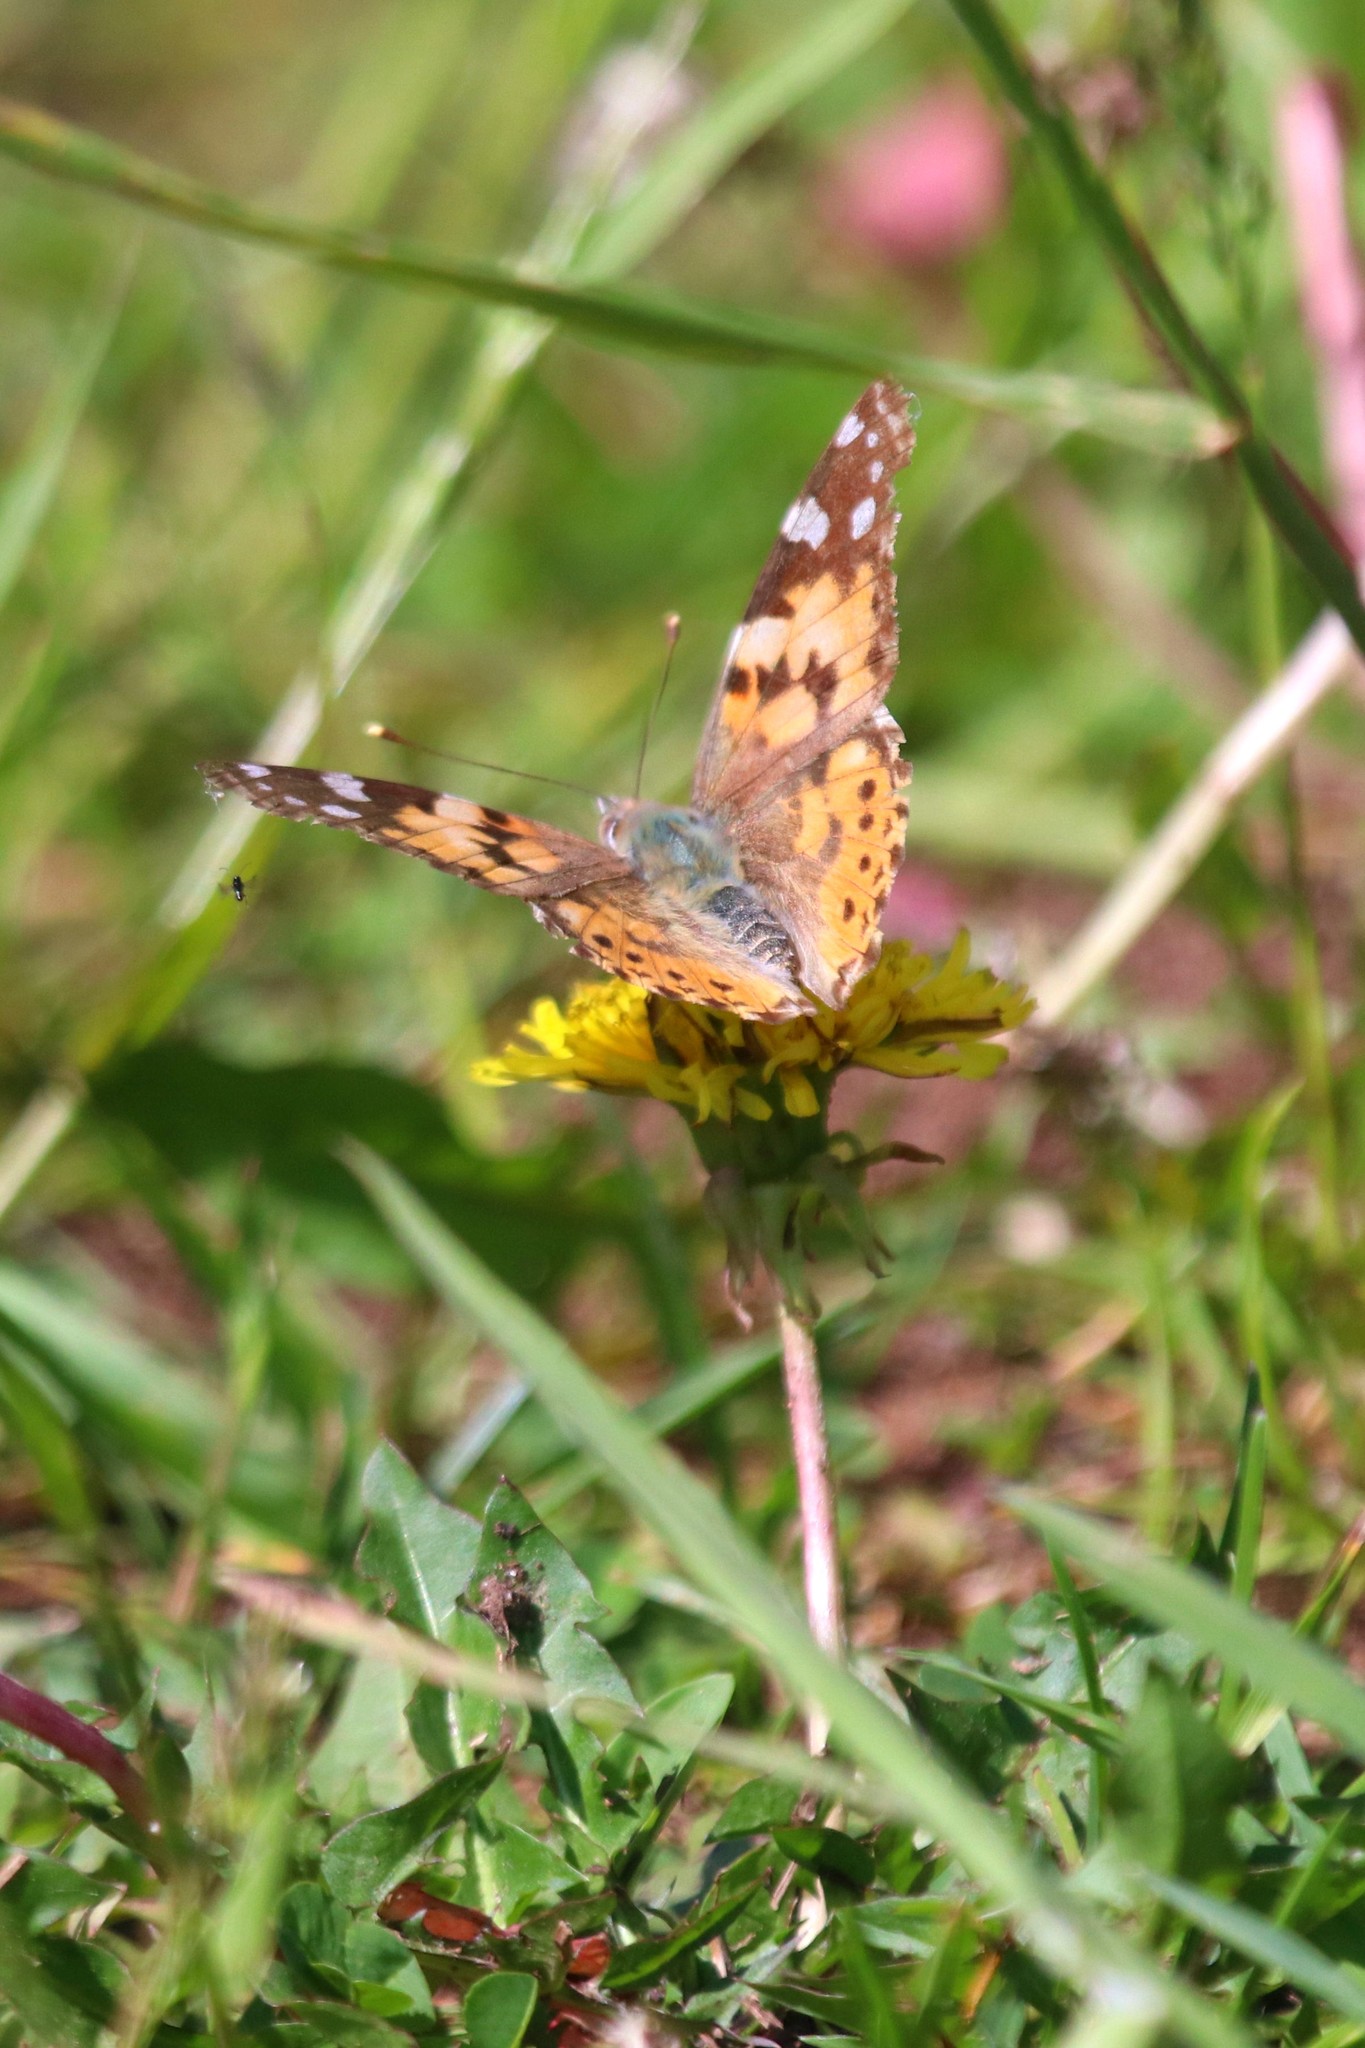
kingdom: Animalia
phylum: Arthropoda
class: Insecta
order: Lepidoptera
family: Nymphalidae
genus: Vanessa
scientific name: Vanessa cardui
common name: Painted lady
